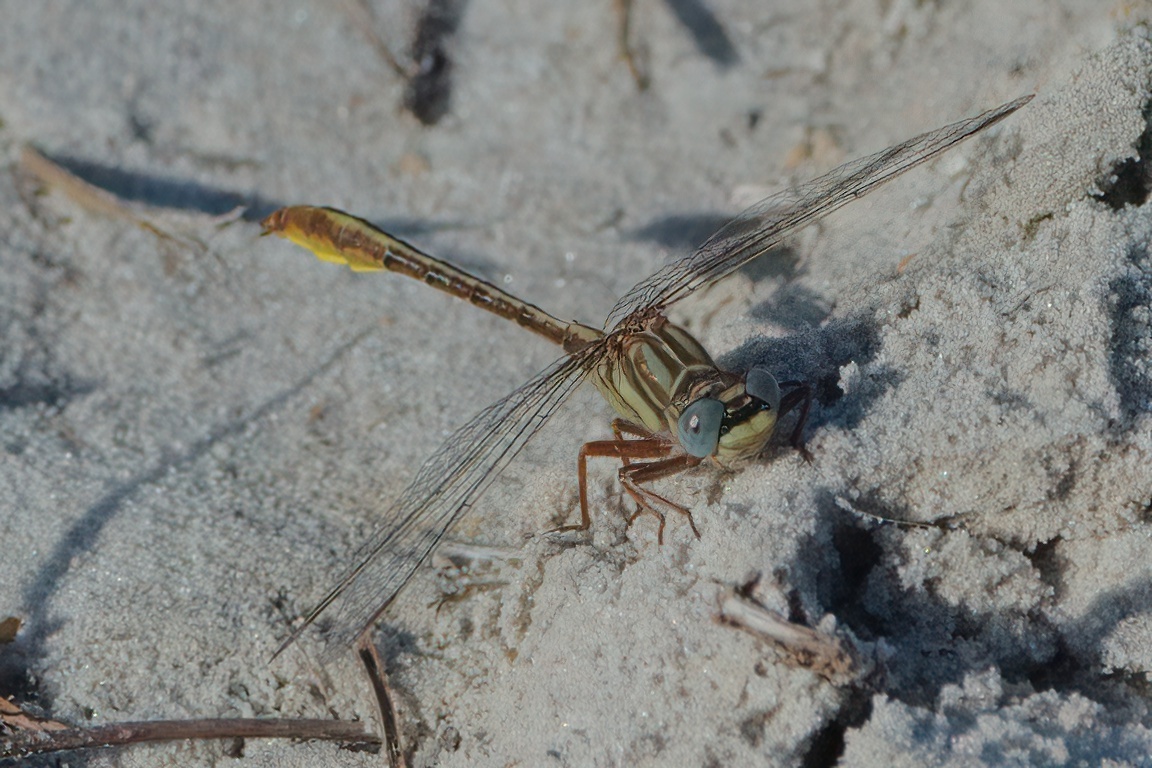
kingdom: Animalia
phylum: Arthropoda
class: Insecta
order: Odonata
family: Gomphidae
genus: Phanogomphus
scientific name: Phanogomphus cavillaris
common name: Sandhill clubtail
